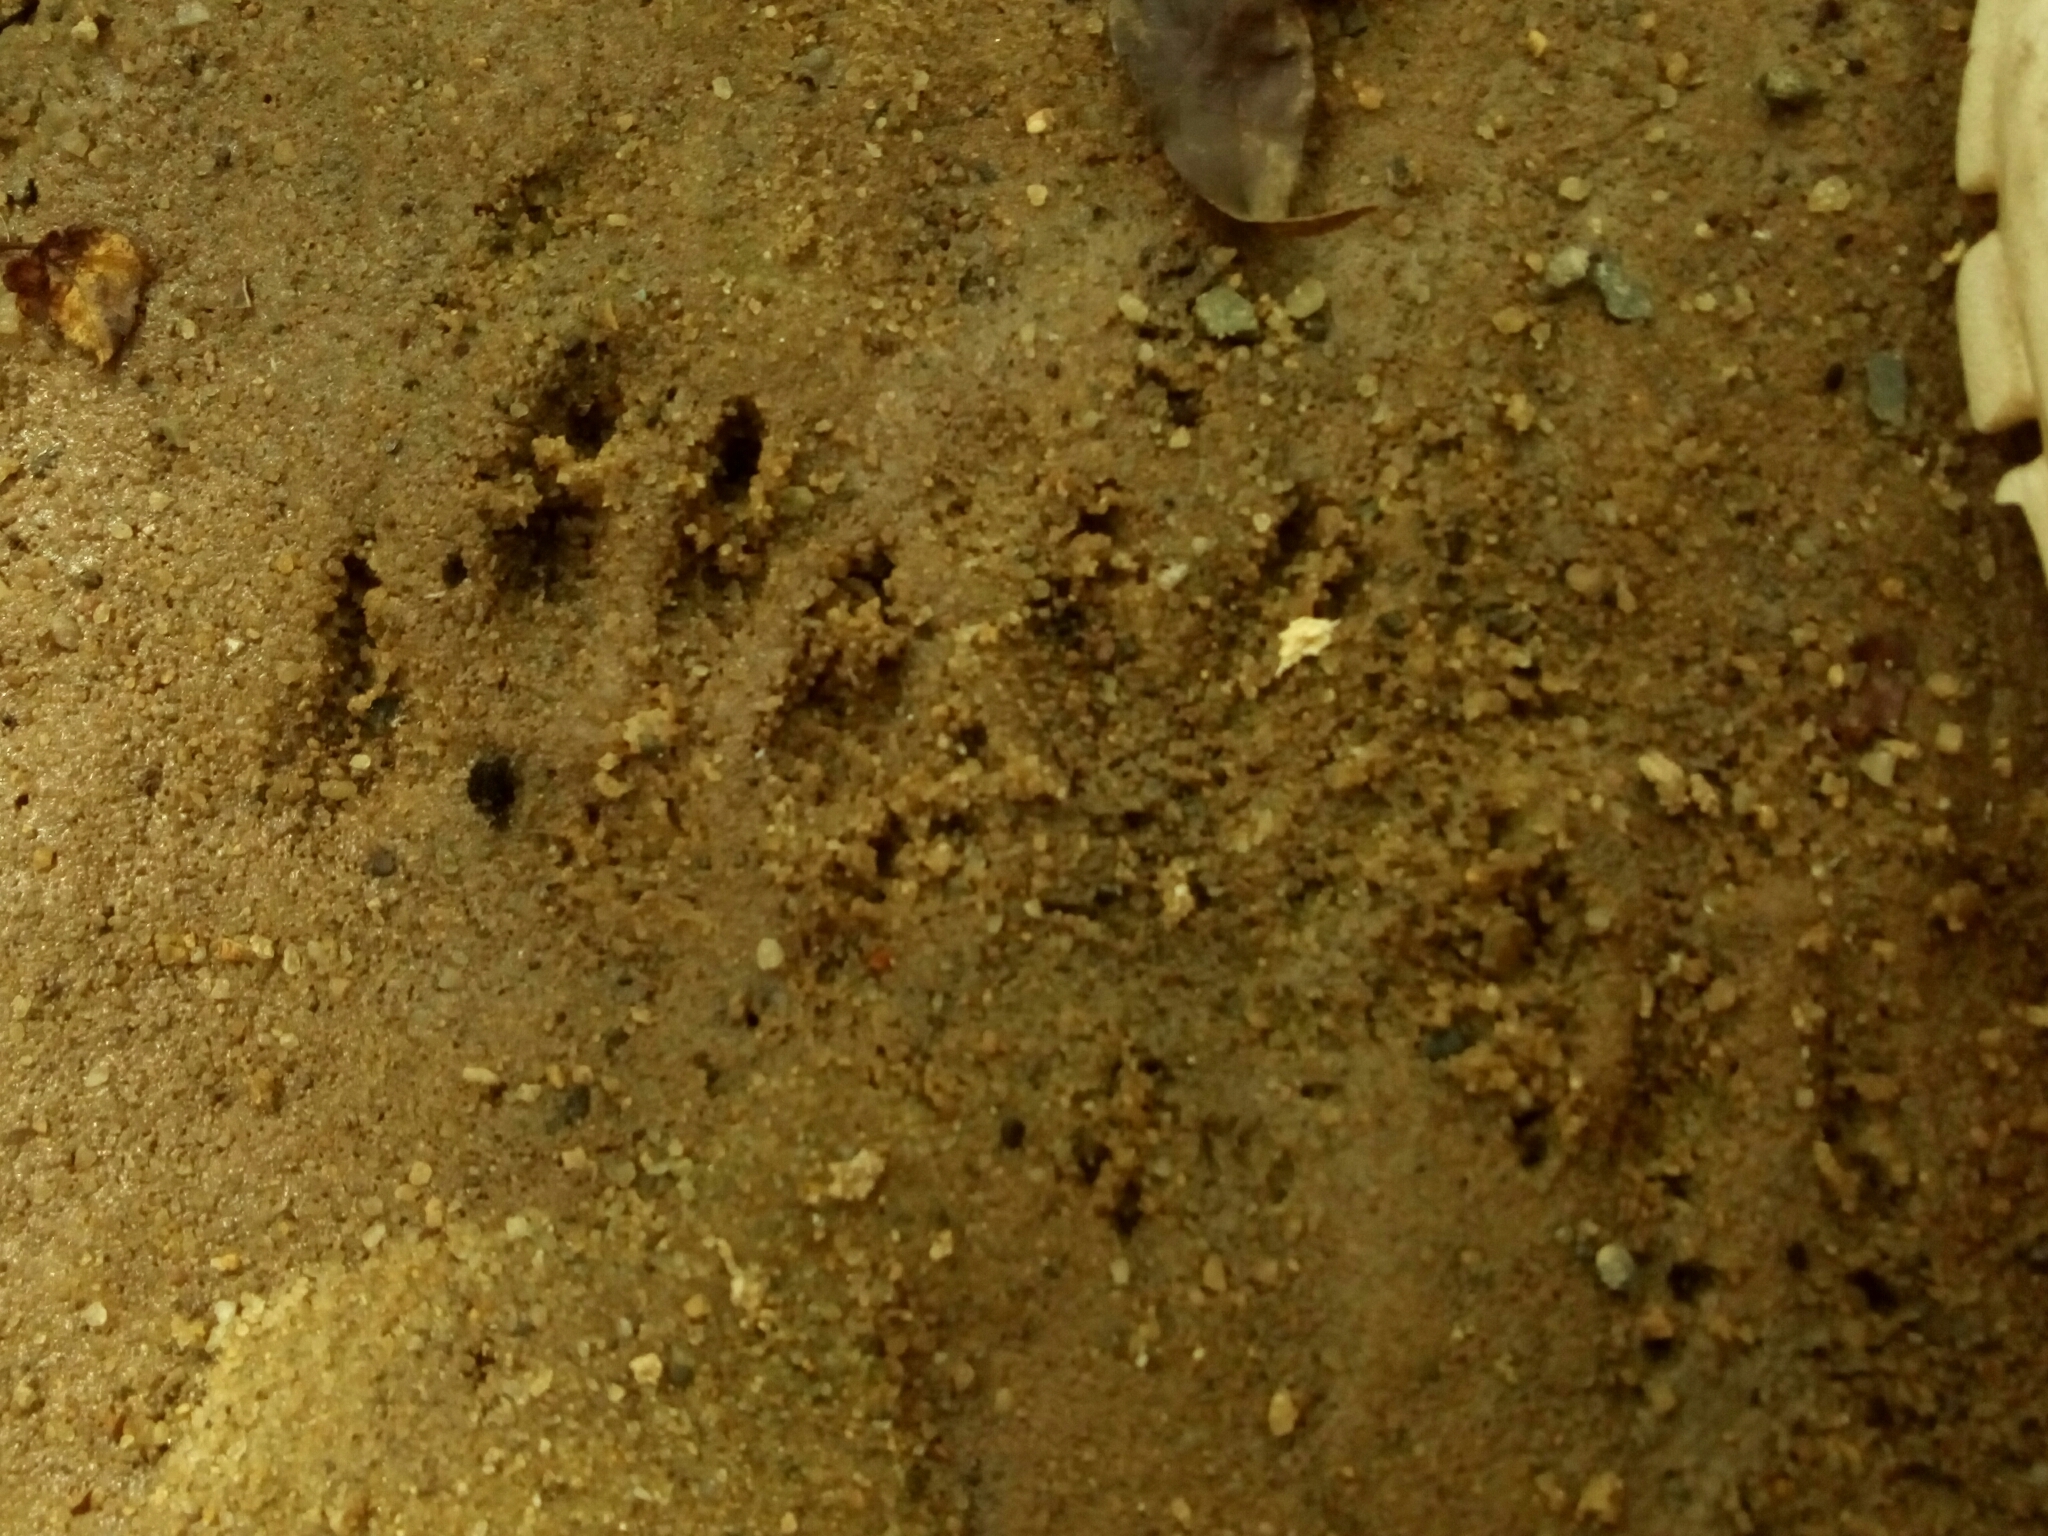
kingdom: Animalia
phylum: Chordata
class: Mammalia
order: Carnivora
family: Procyonidae
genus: Procyon
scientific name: Procyon lotor
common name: Raccoon
